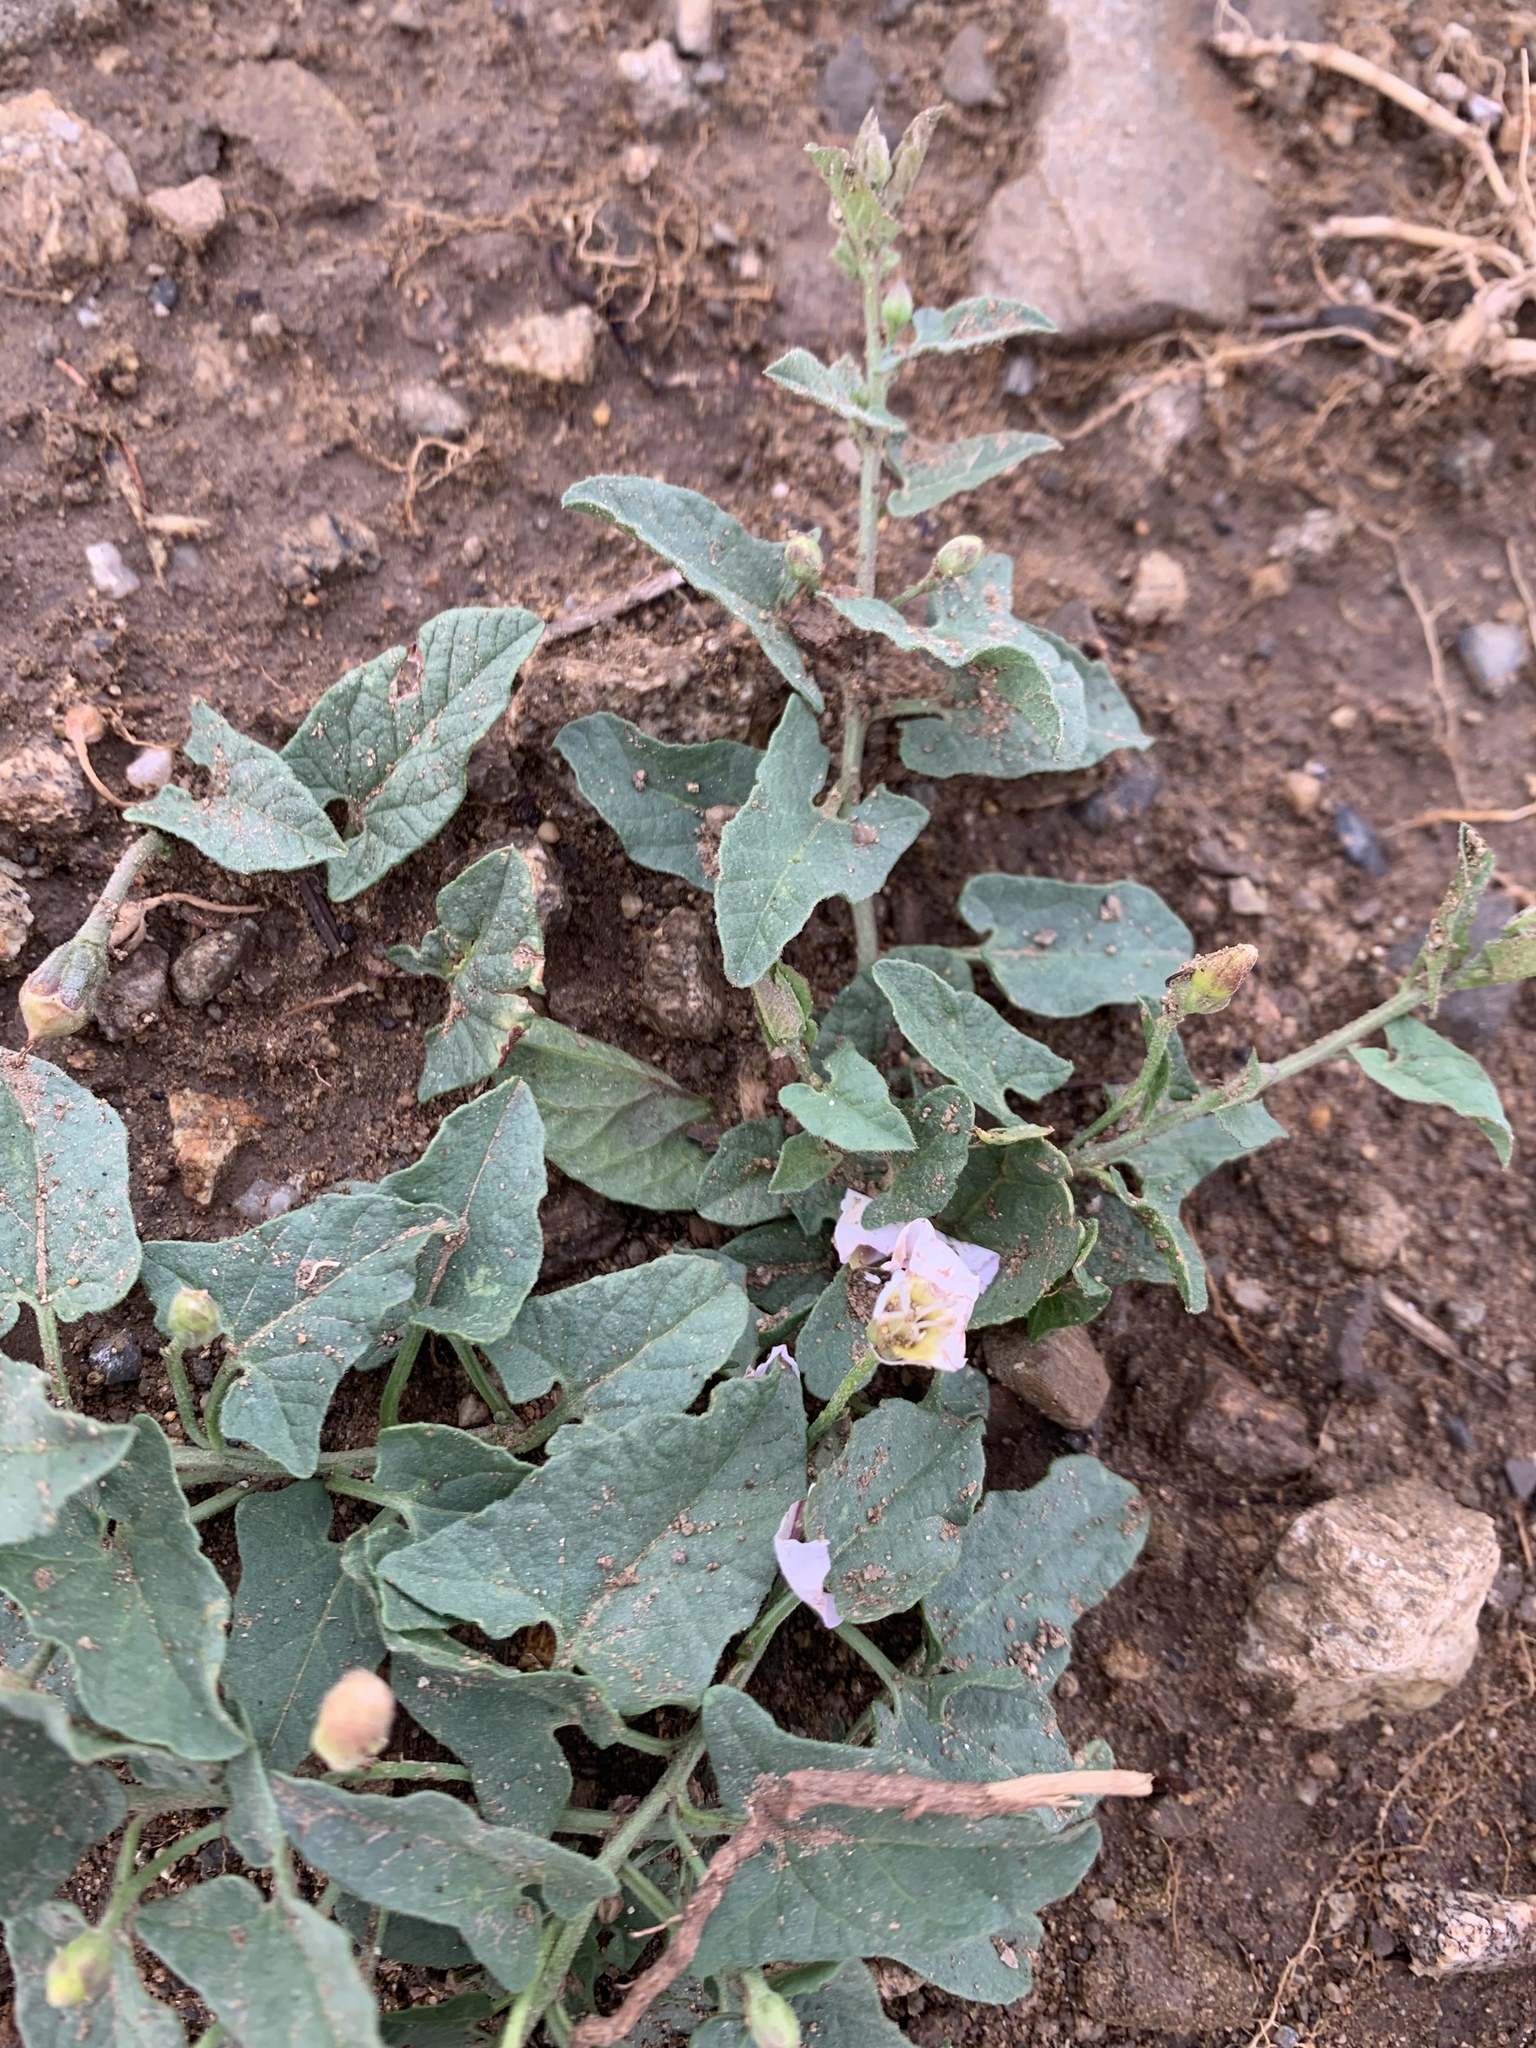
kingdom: Plantae
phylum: Tracheophyta
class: Magnoliopsida
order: Solanales
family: Convolvulaceae
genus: Convolvulus
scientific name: Convolvulus arvensis
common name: Field bindweed
